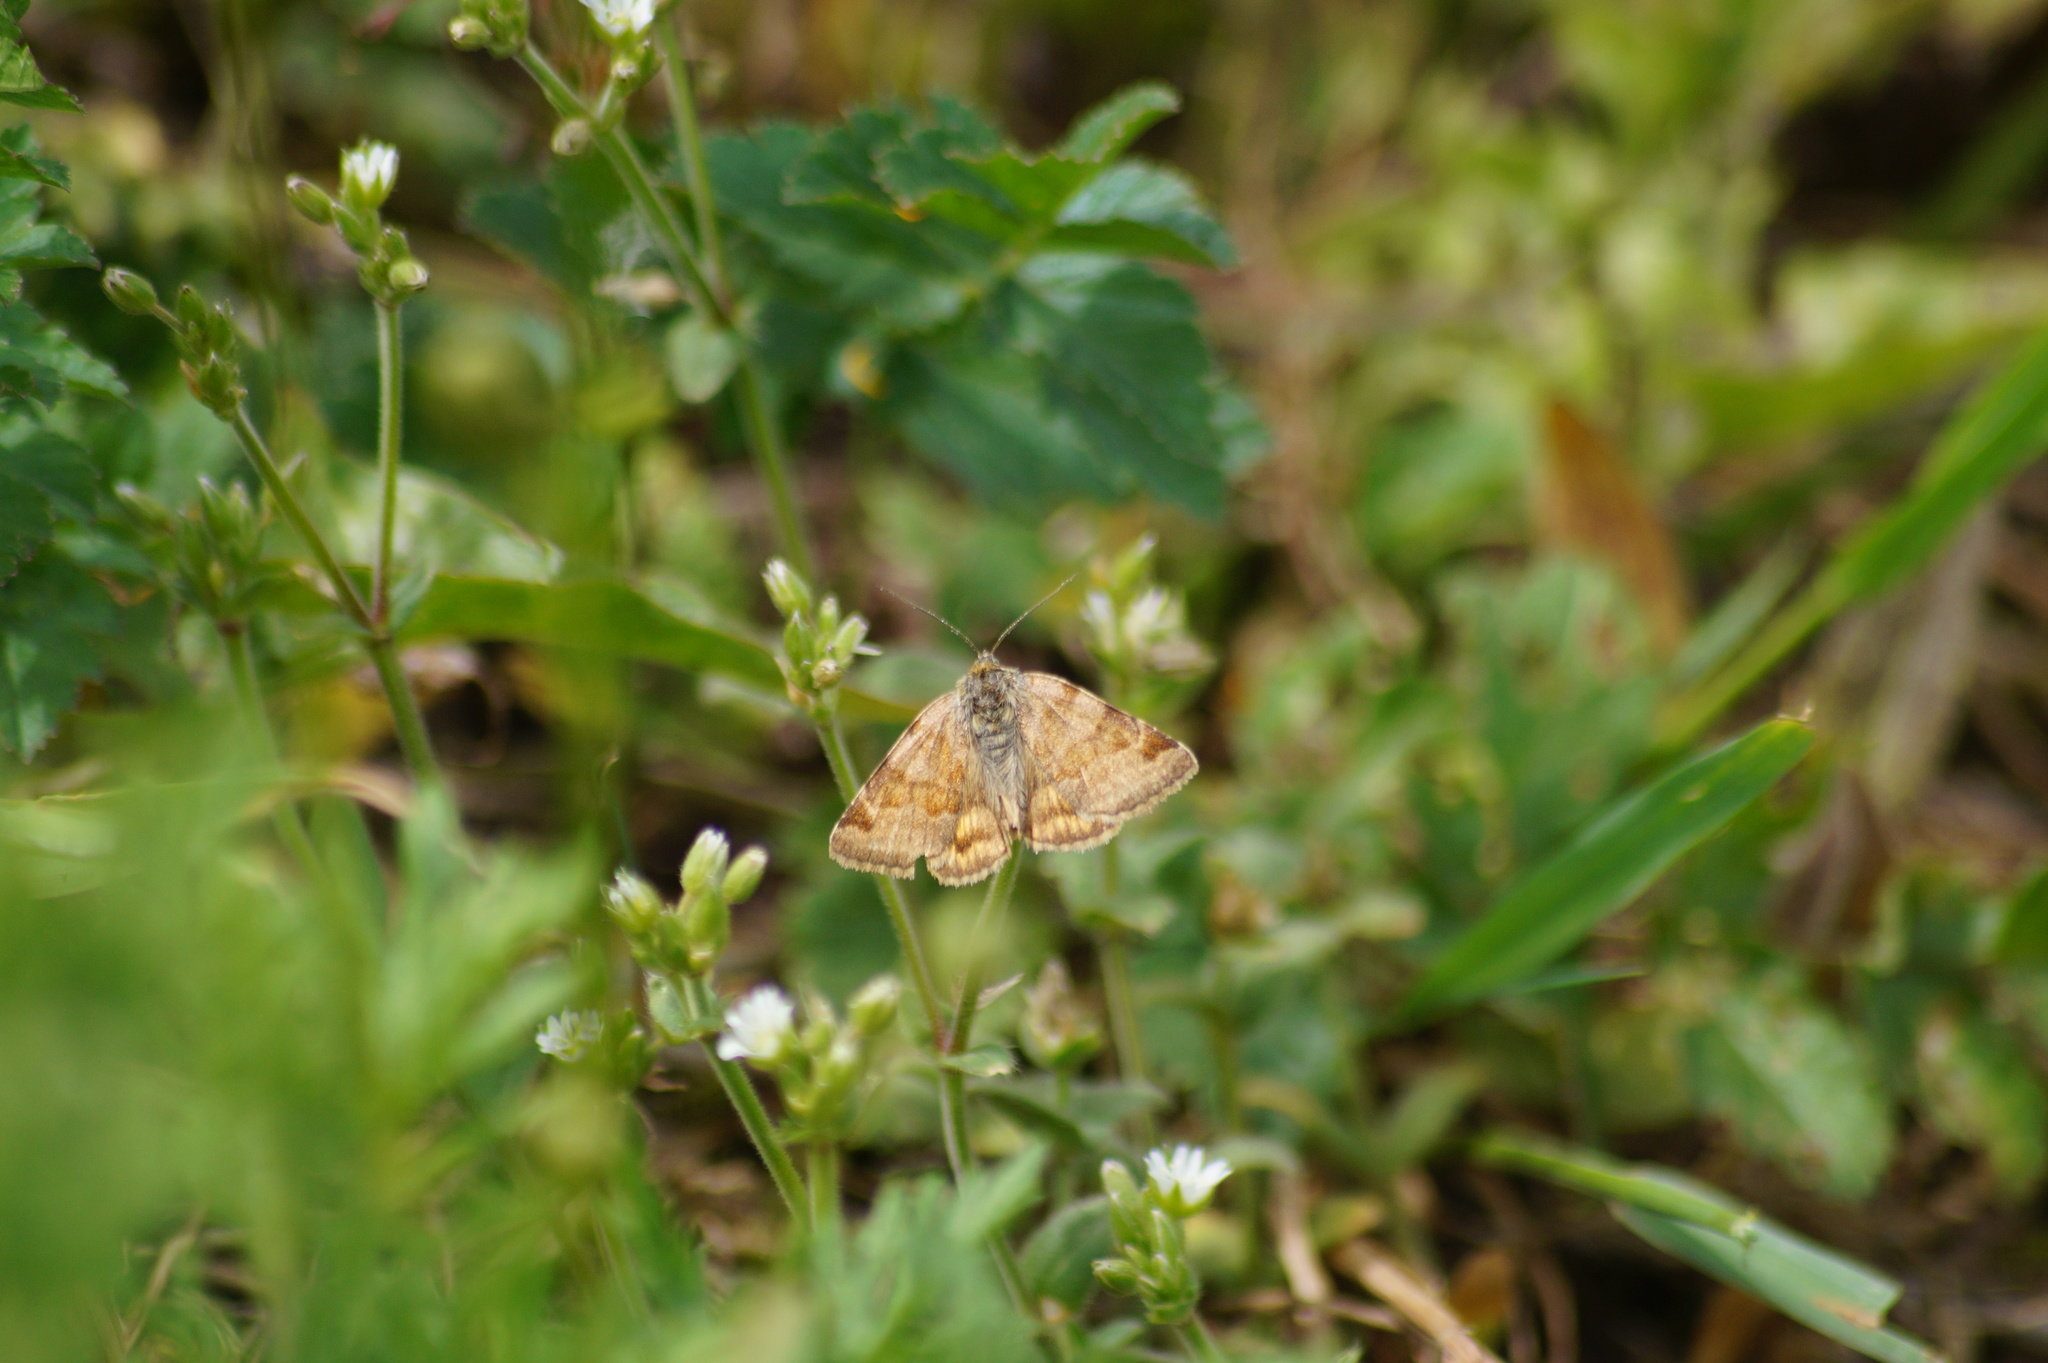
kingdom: Animalia
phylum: Arthropoda
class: Insecta
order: Lepidoptera
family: Erebidae
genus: Euclidia
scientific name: Euclidia glyphica
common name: Burnet companion
